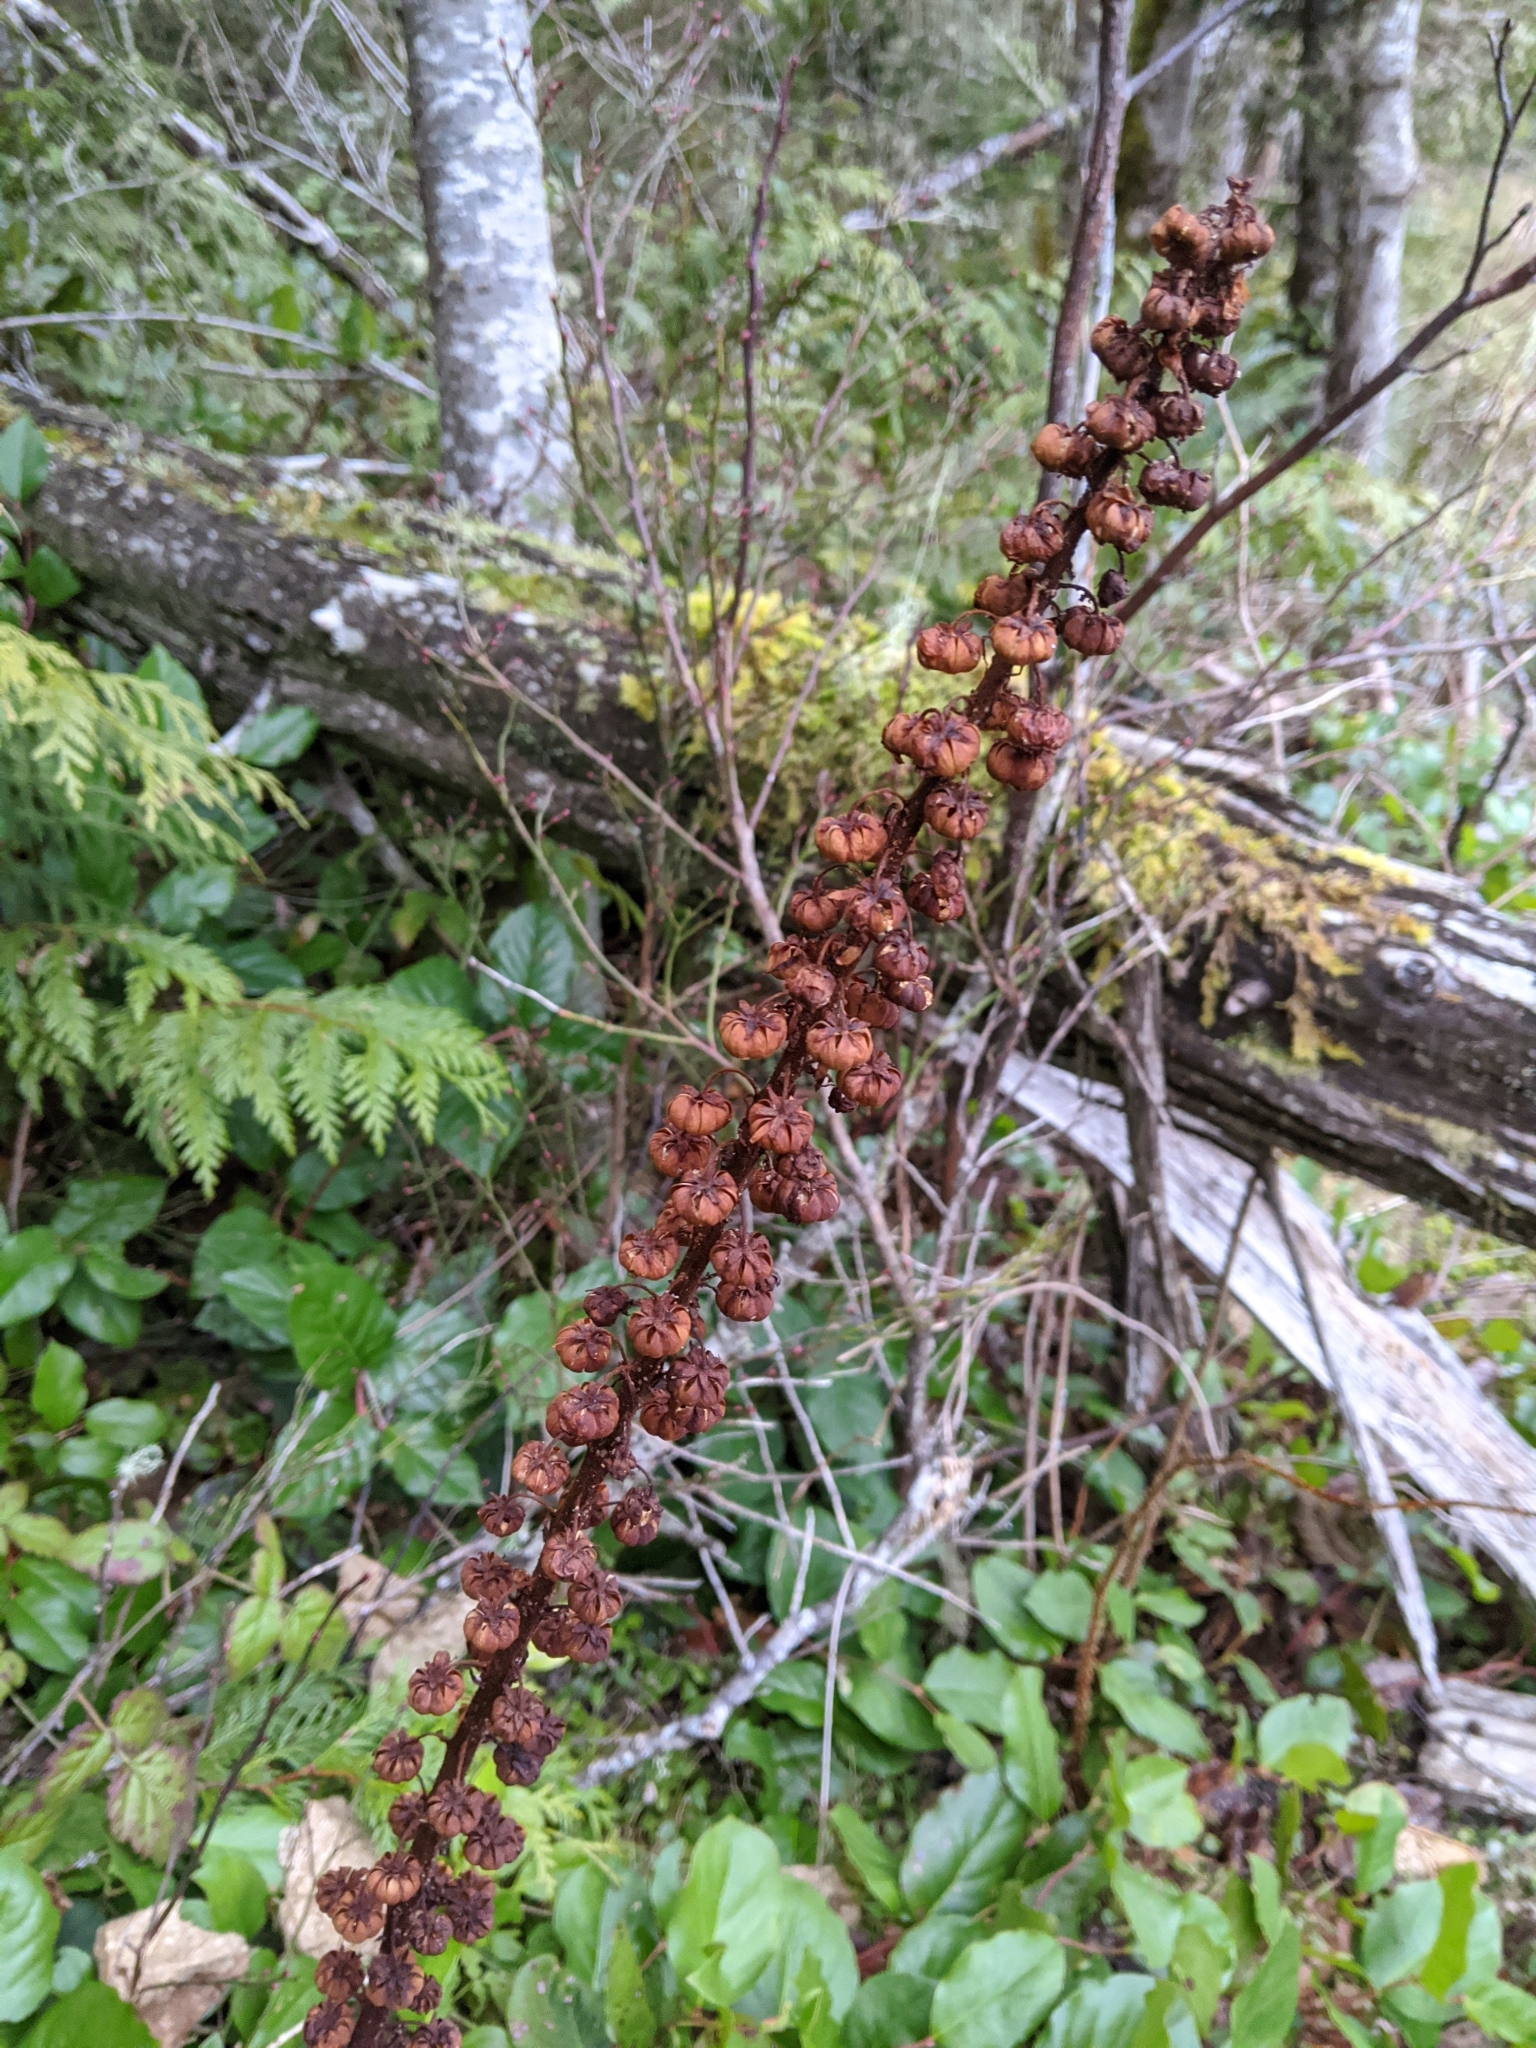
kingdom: Plantae
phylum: Tracheophyta
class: Magnoliopsida
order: Ericales
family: Ericaceae
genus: Pterospora
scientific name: Pterospora andromedea
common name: Giant bird's-nest
